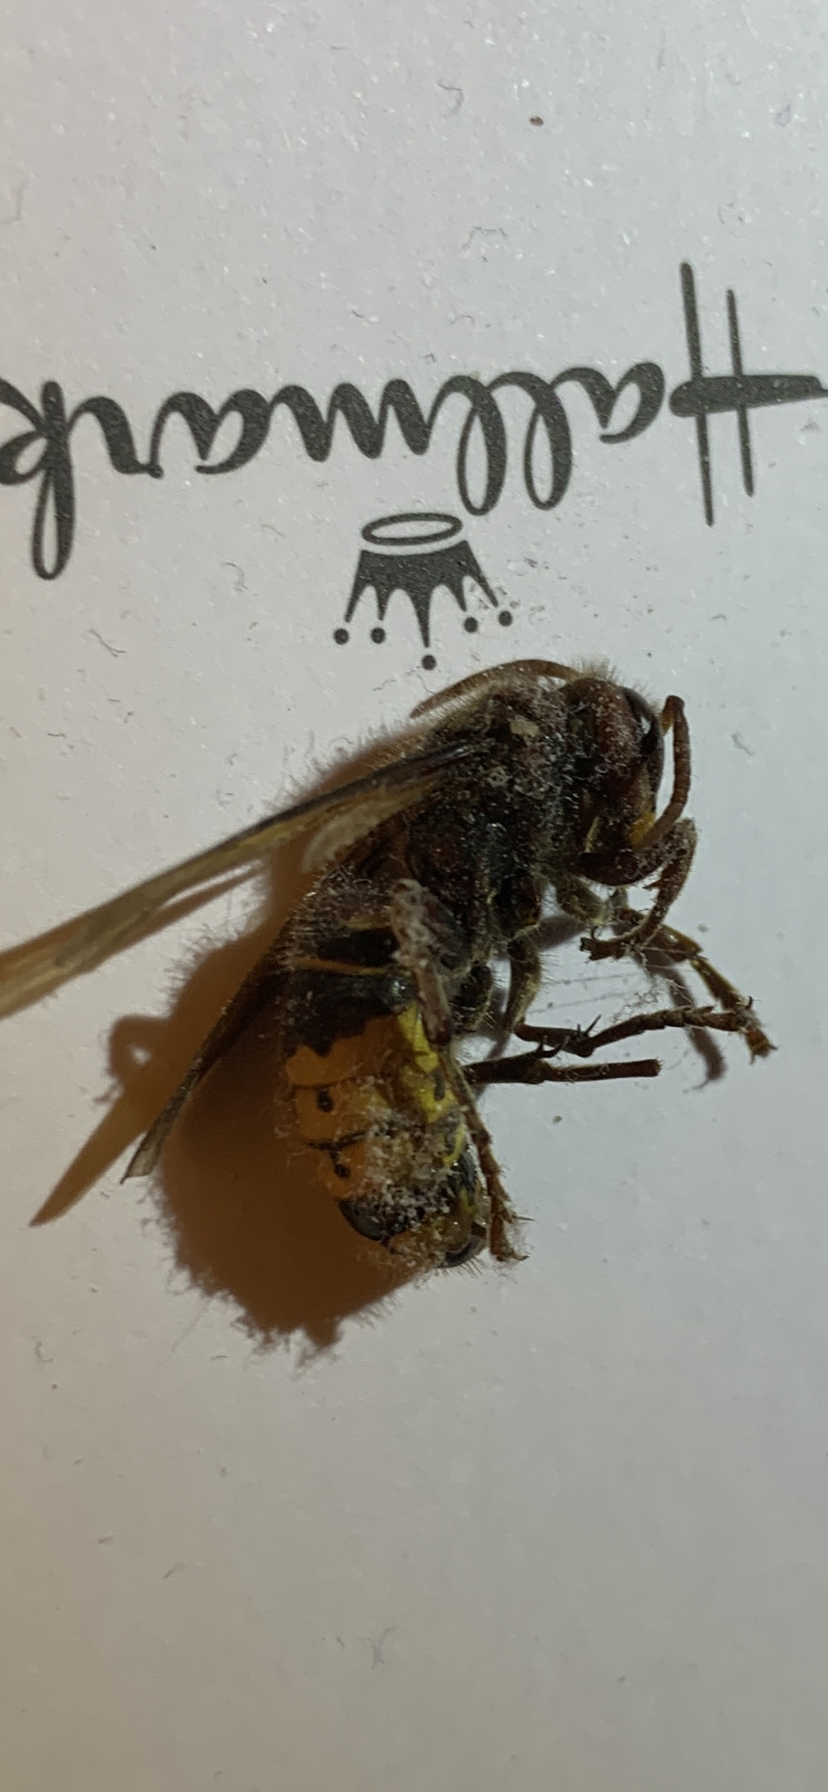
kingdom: Animalia
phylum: Arthropoda
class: Insecta
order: Hymenoptera
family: Vespidae
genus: Vespa
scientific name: Vespa crabro
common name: Hornet
